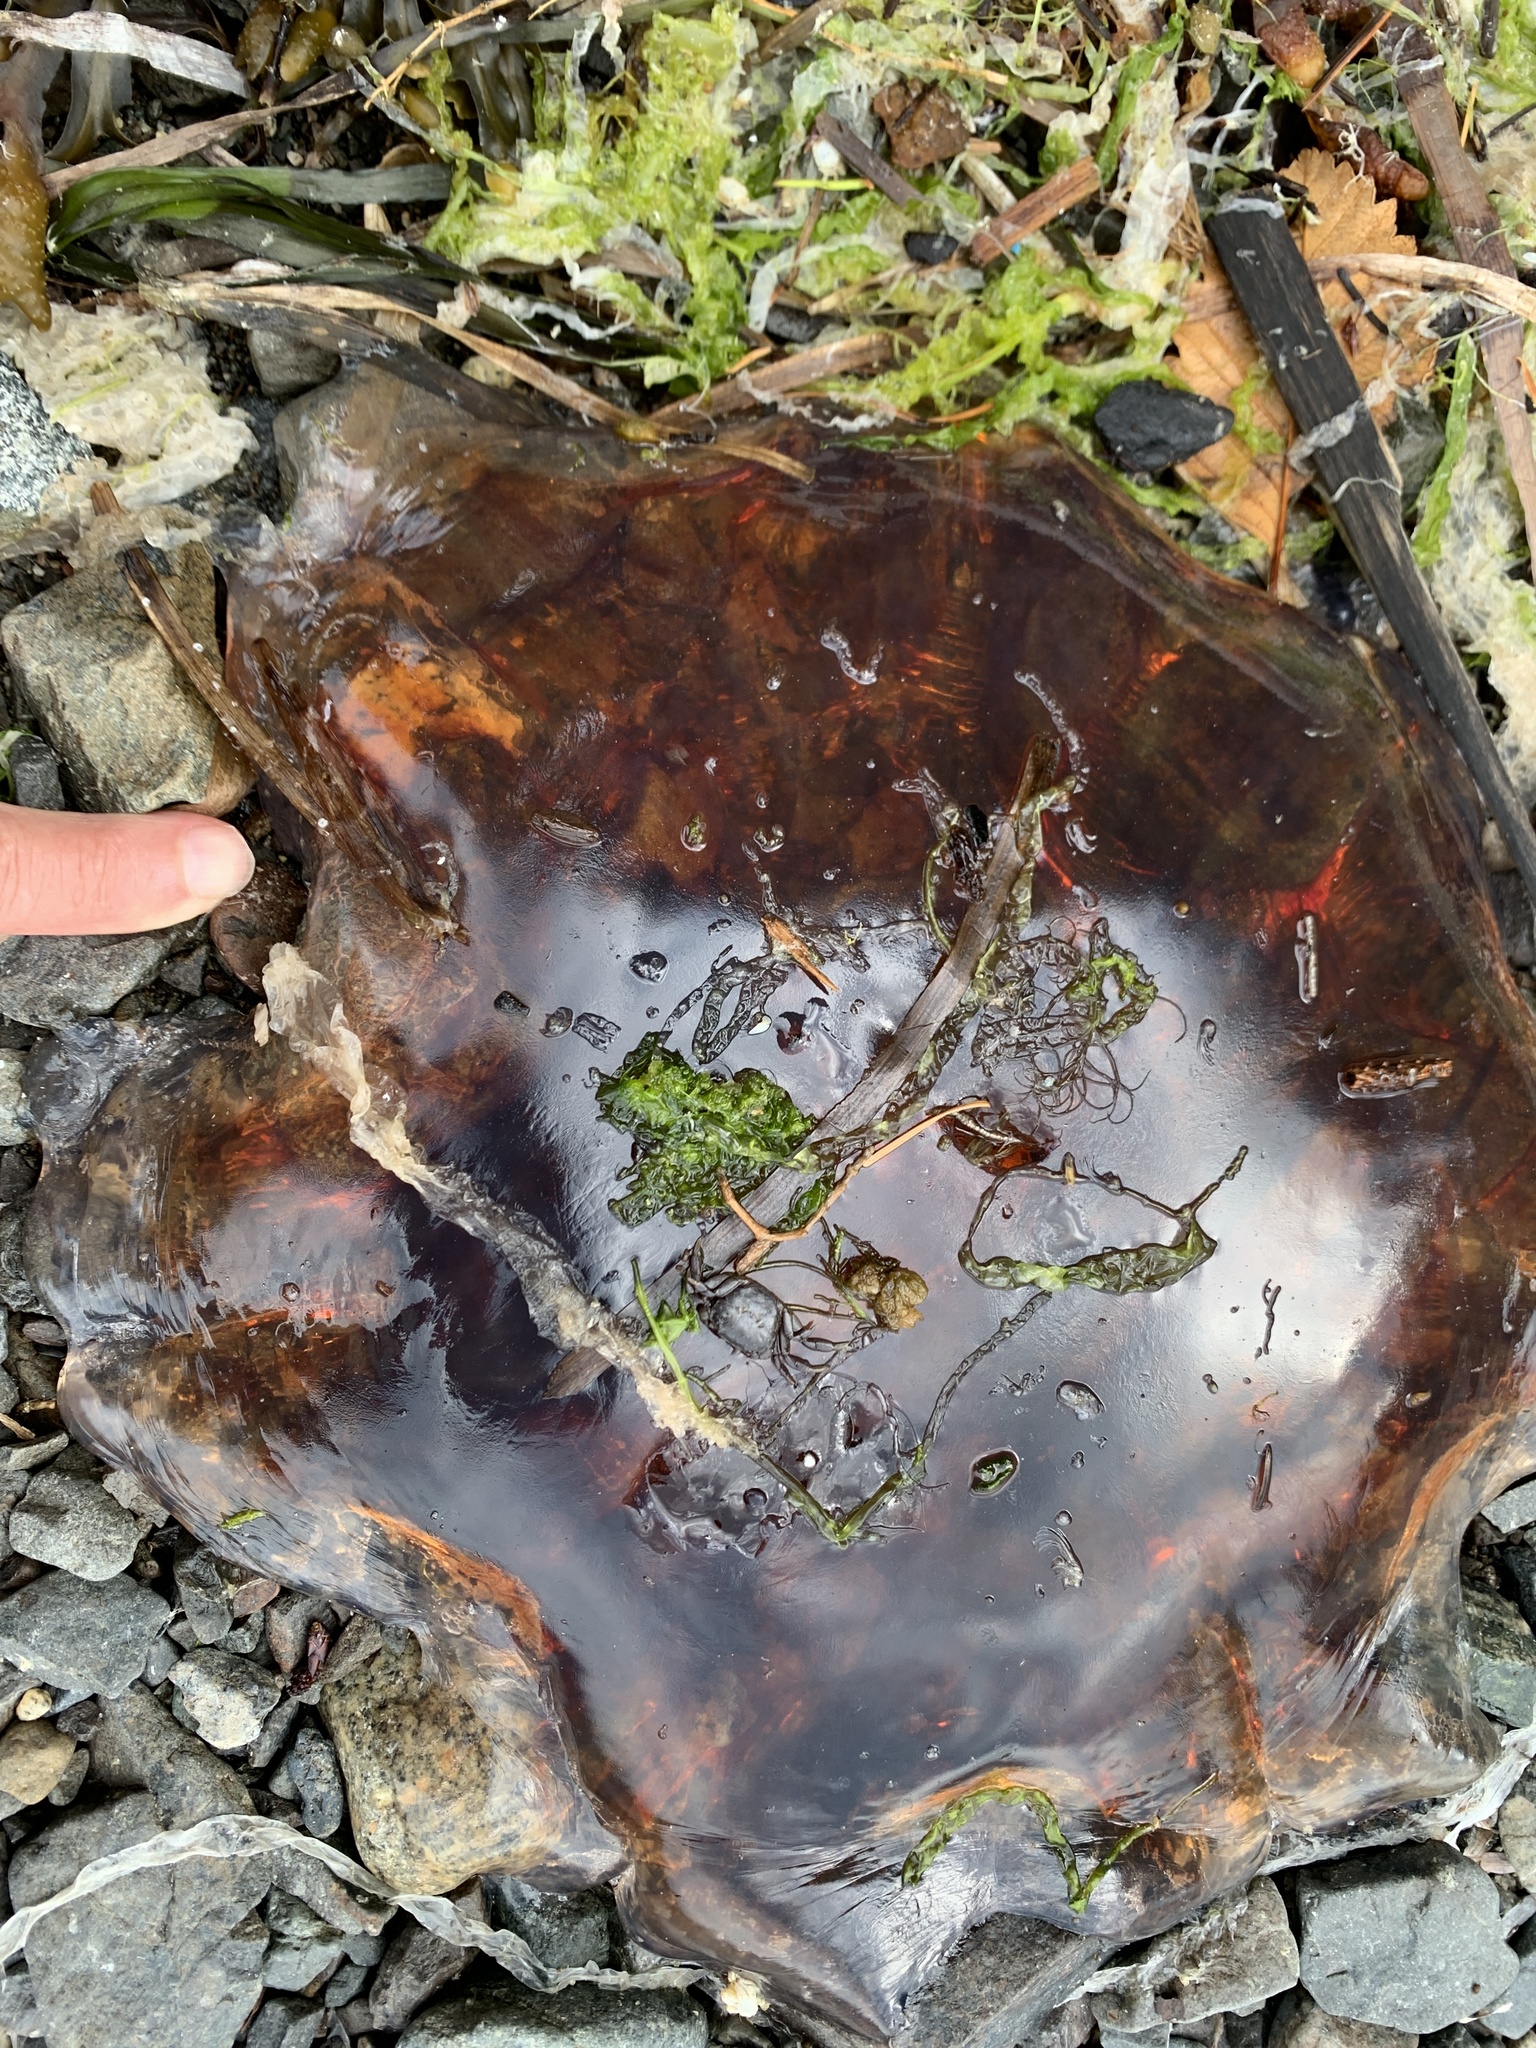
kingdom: Animalia
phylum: Cnidaria
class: Scyphozoa
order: Semaeostomeae
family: Cyaneidae
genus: Cyanea
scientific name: Cyanea ferruginea
